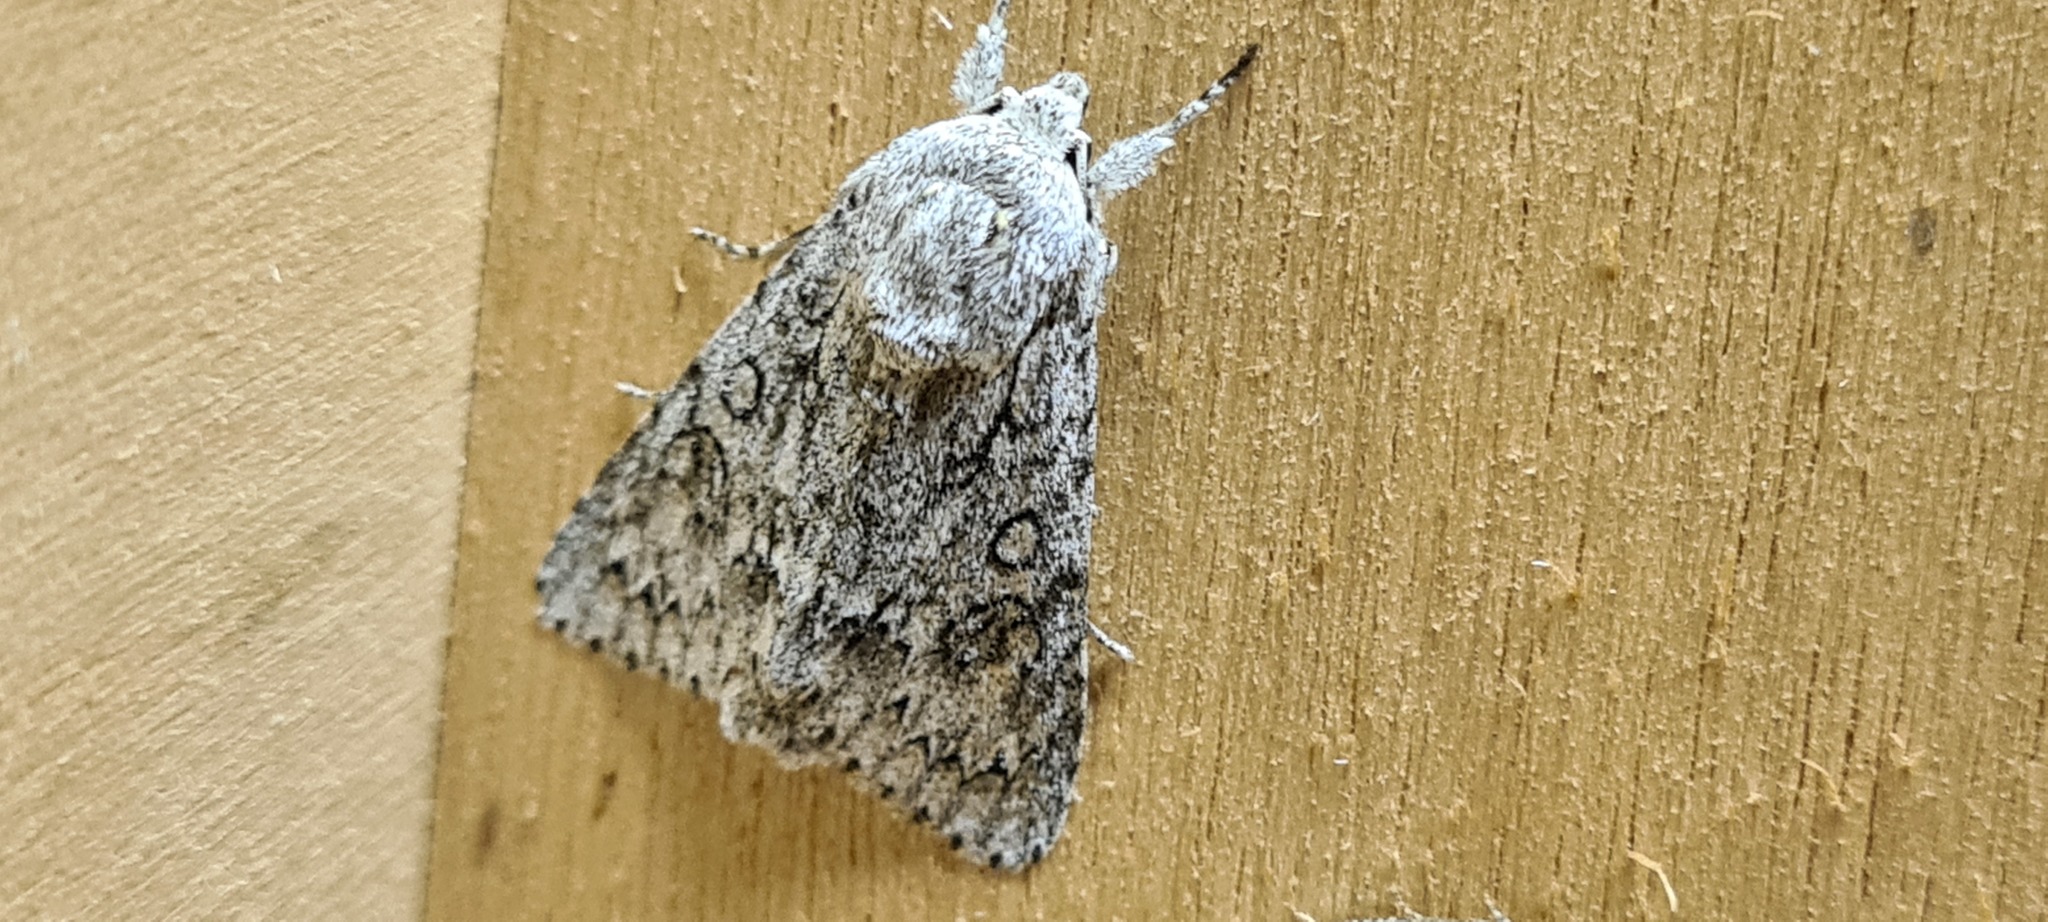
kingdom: Animalia
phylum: Arthropoda
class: Insecta
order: Lepidoptera
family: Noctuidae
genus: Acronicta
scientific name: Acronicta aceris
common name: Sycamore
